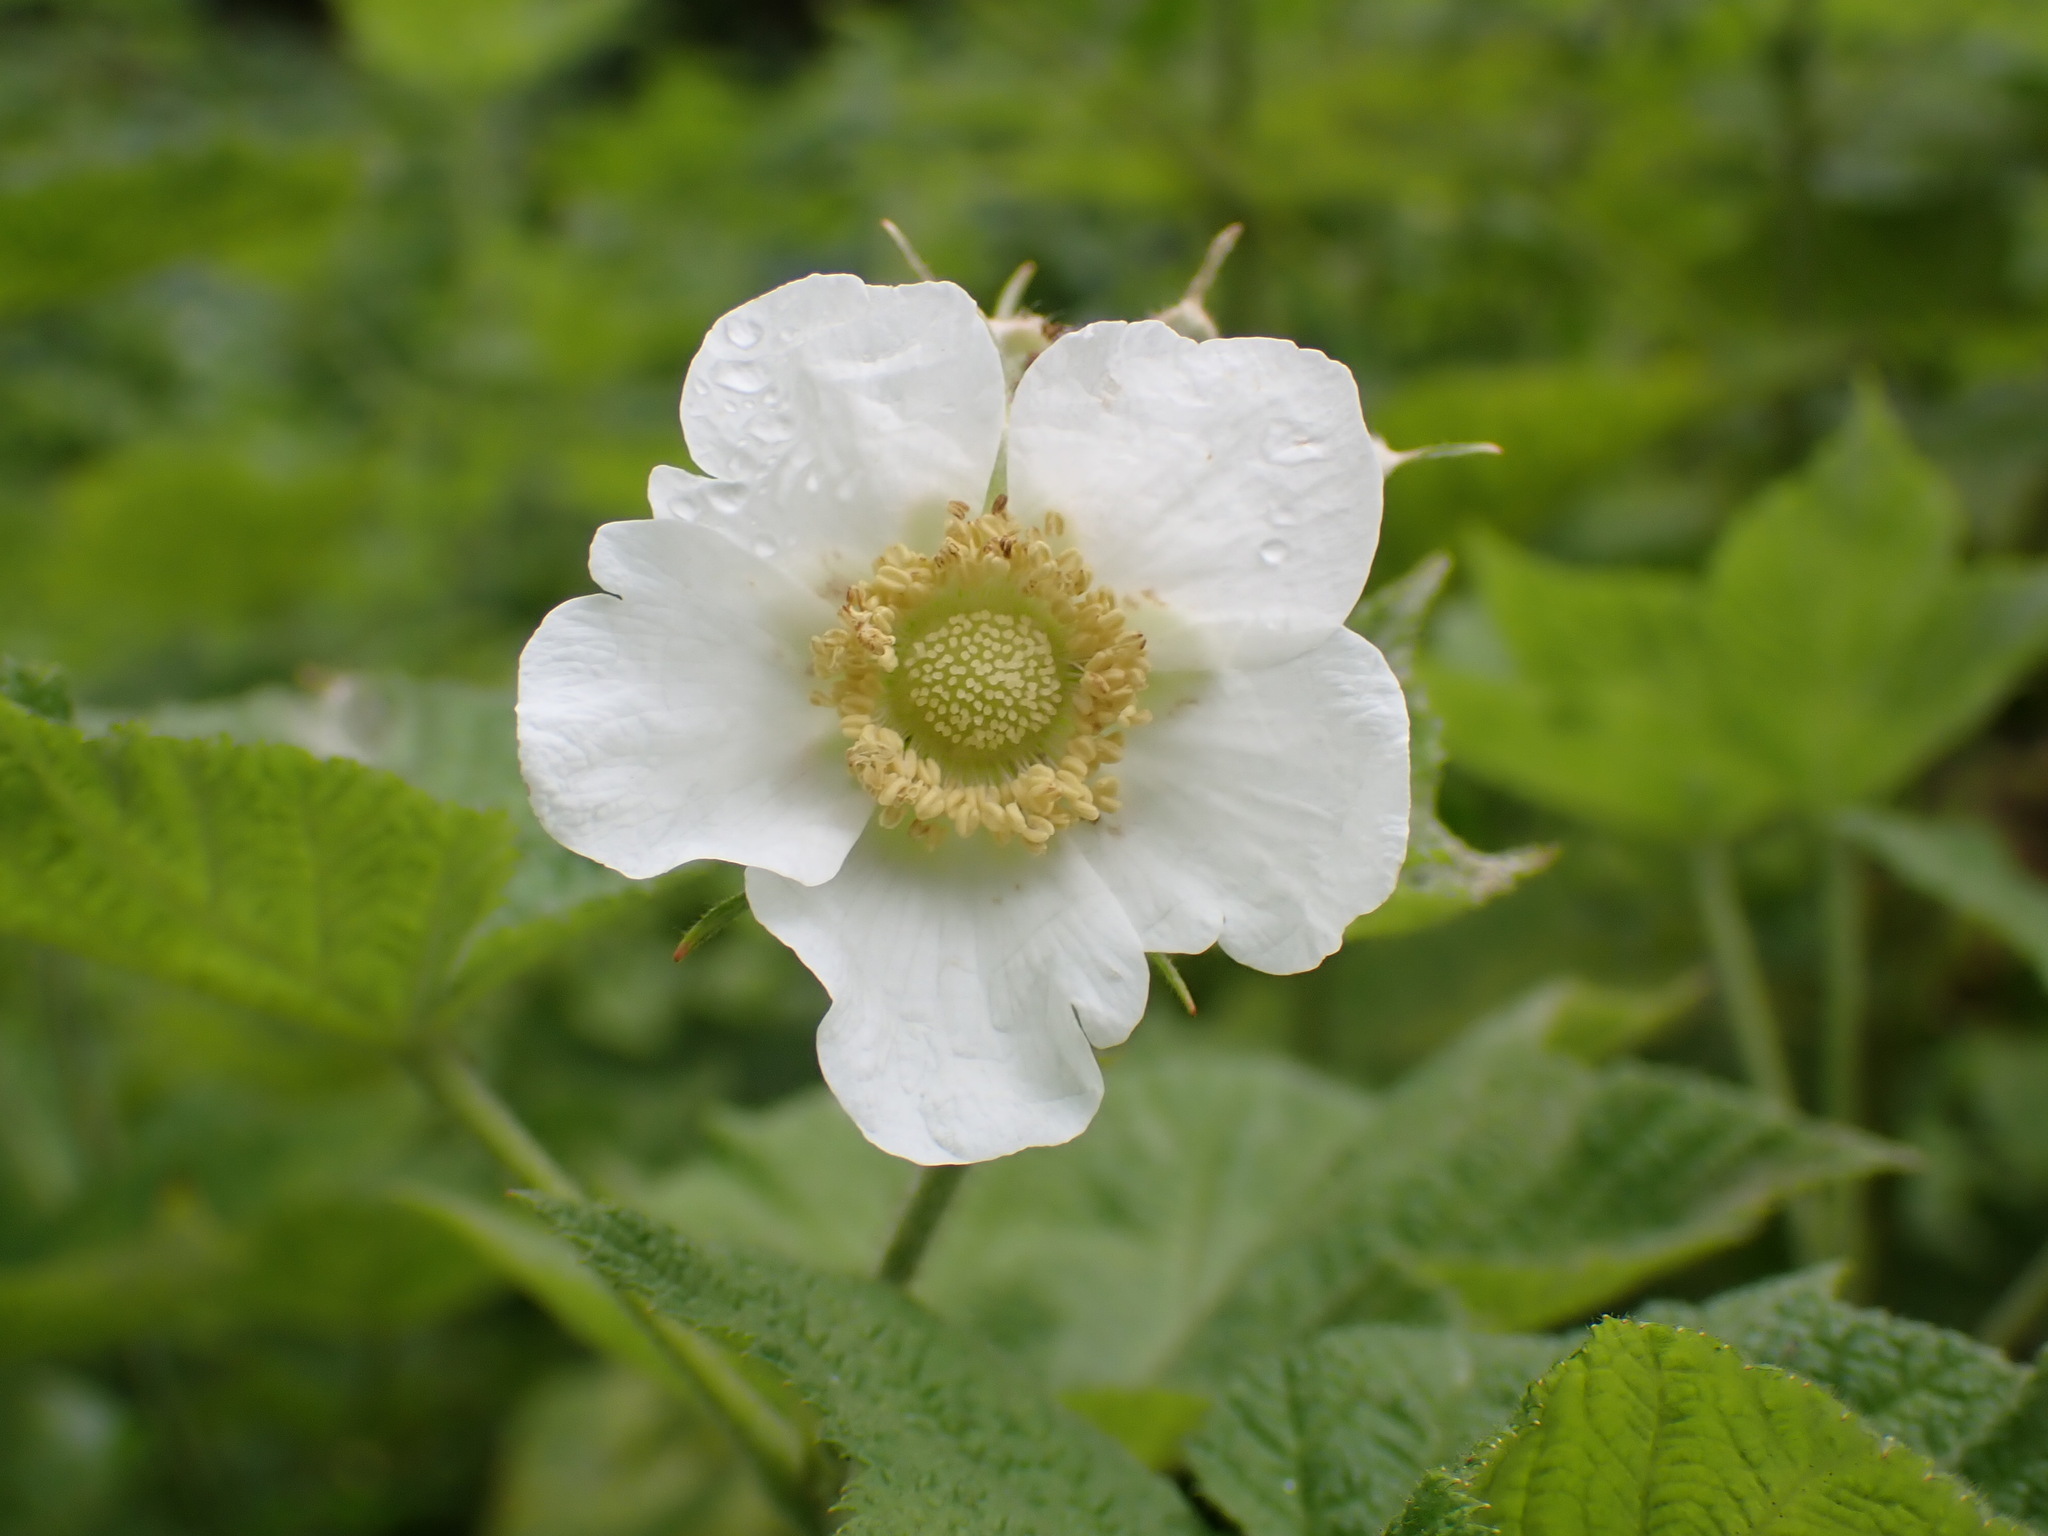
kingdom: Plantae
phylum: Tracheophyta
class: Magnoliopsida
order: Rosales
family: Rosaceae
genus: Rubus
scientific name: Rubus parviflorus
